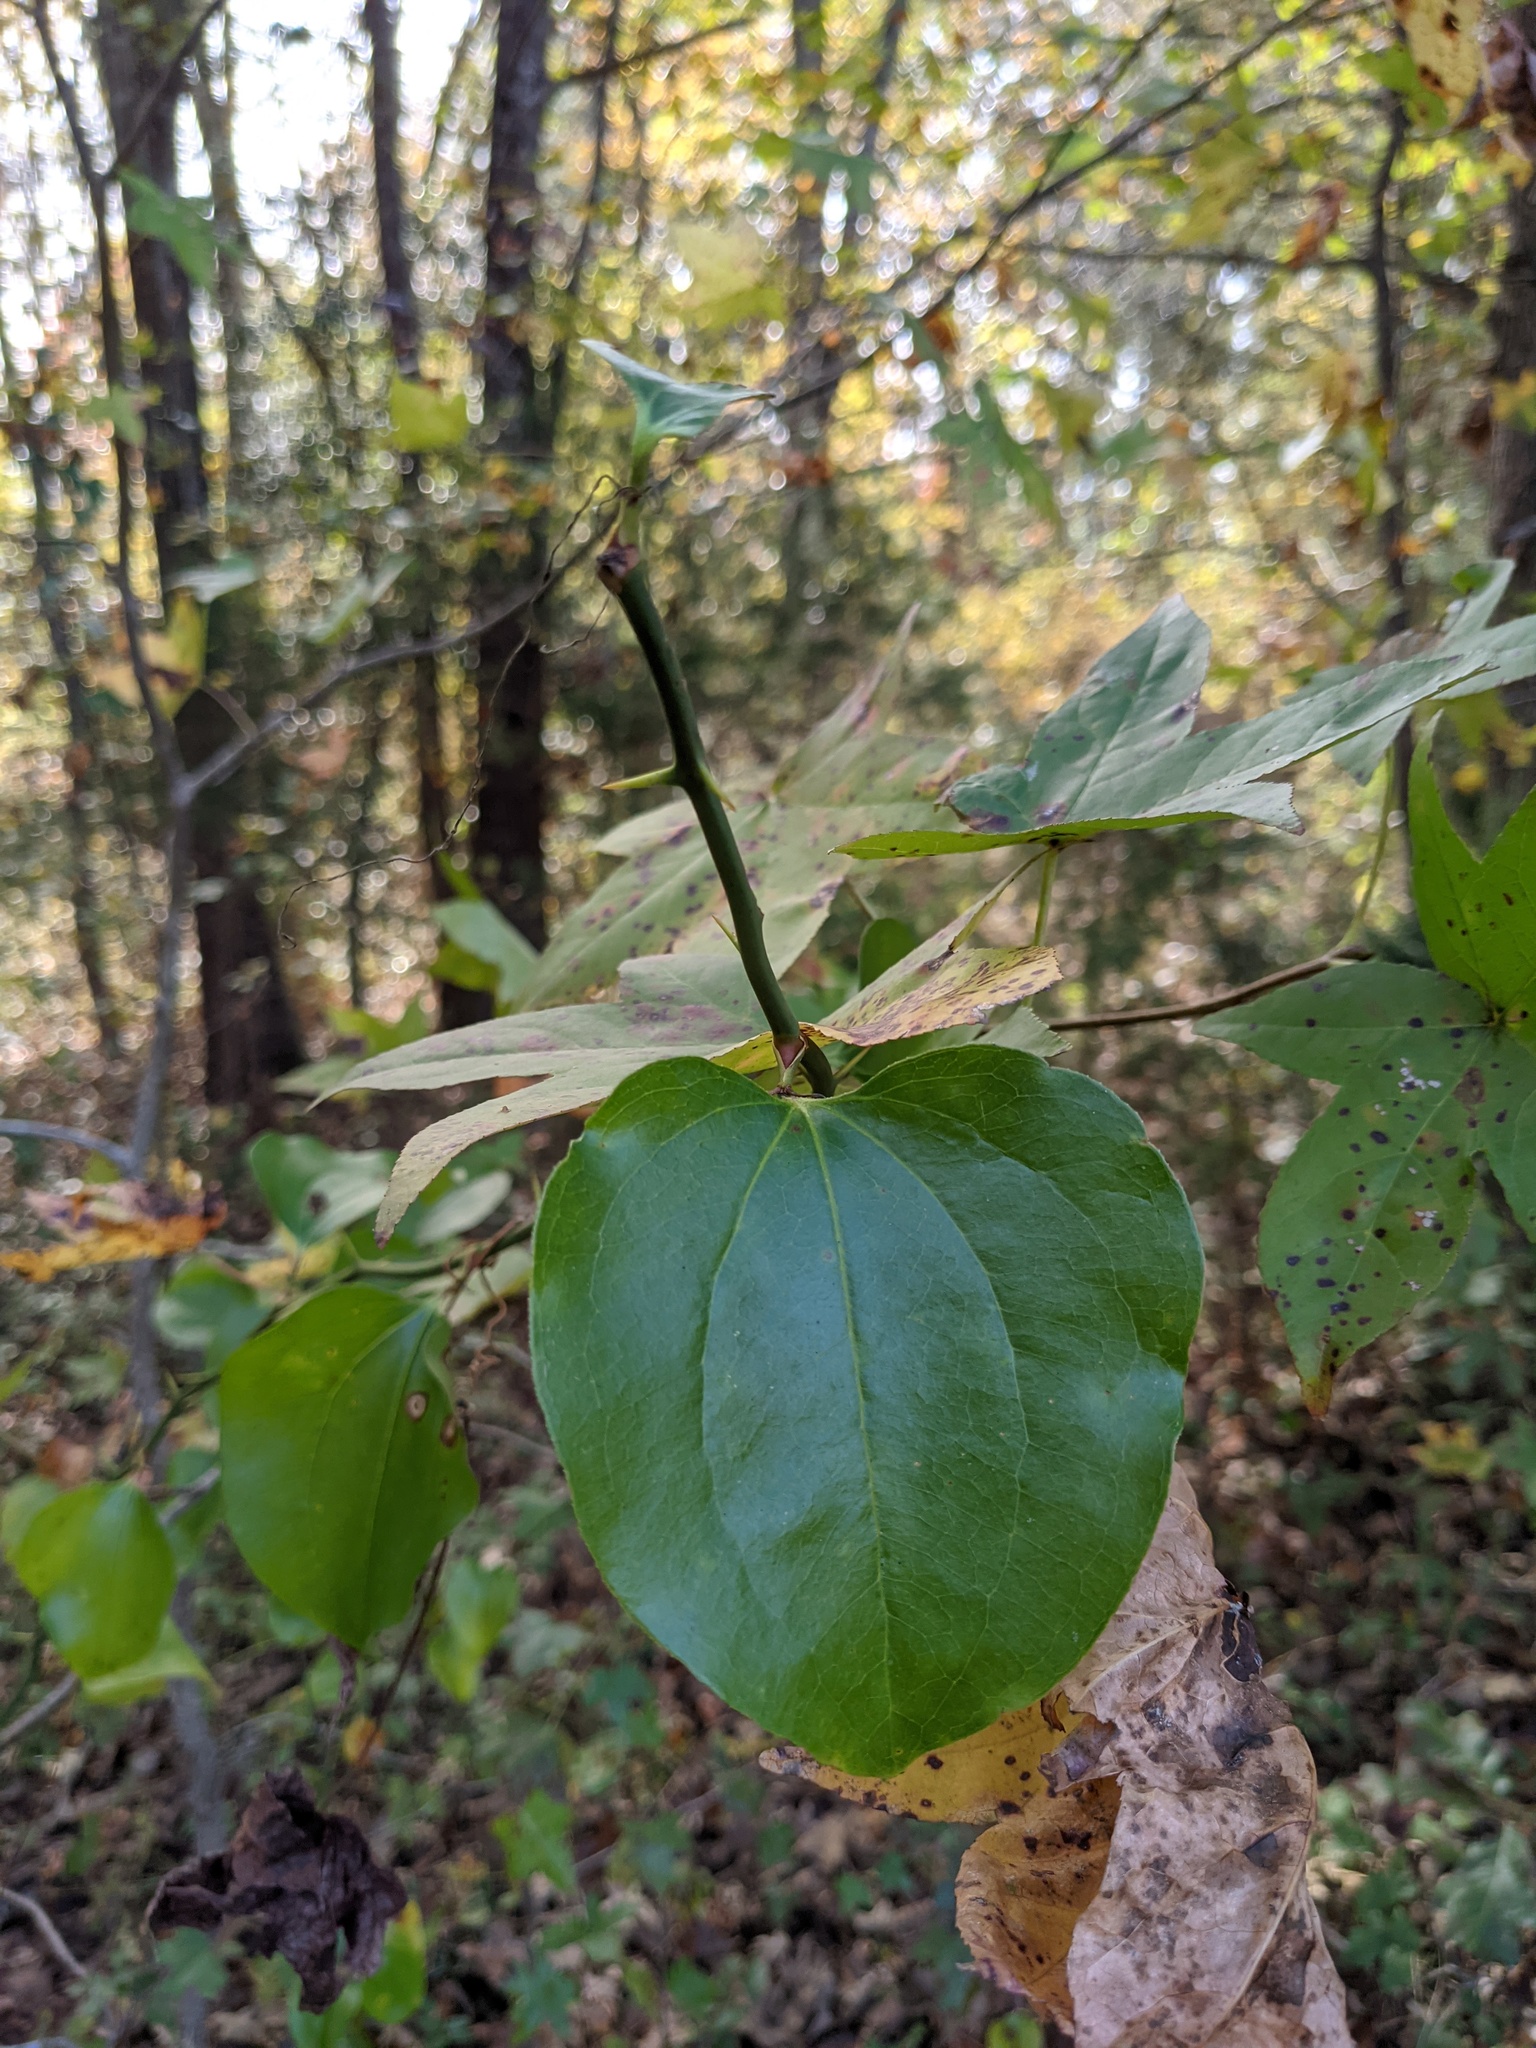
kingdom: Plantae
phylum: Tracheophyta
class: Liliopsida
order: Liliales
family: Smilacaceae
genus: Smilax
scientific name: Smilax rotundifolia
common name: Bullbriar
